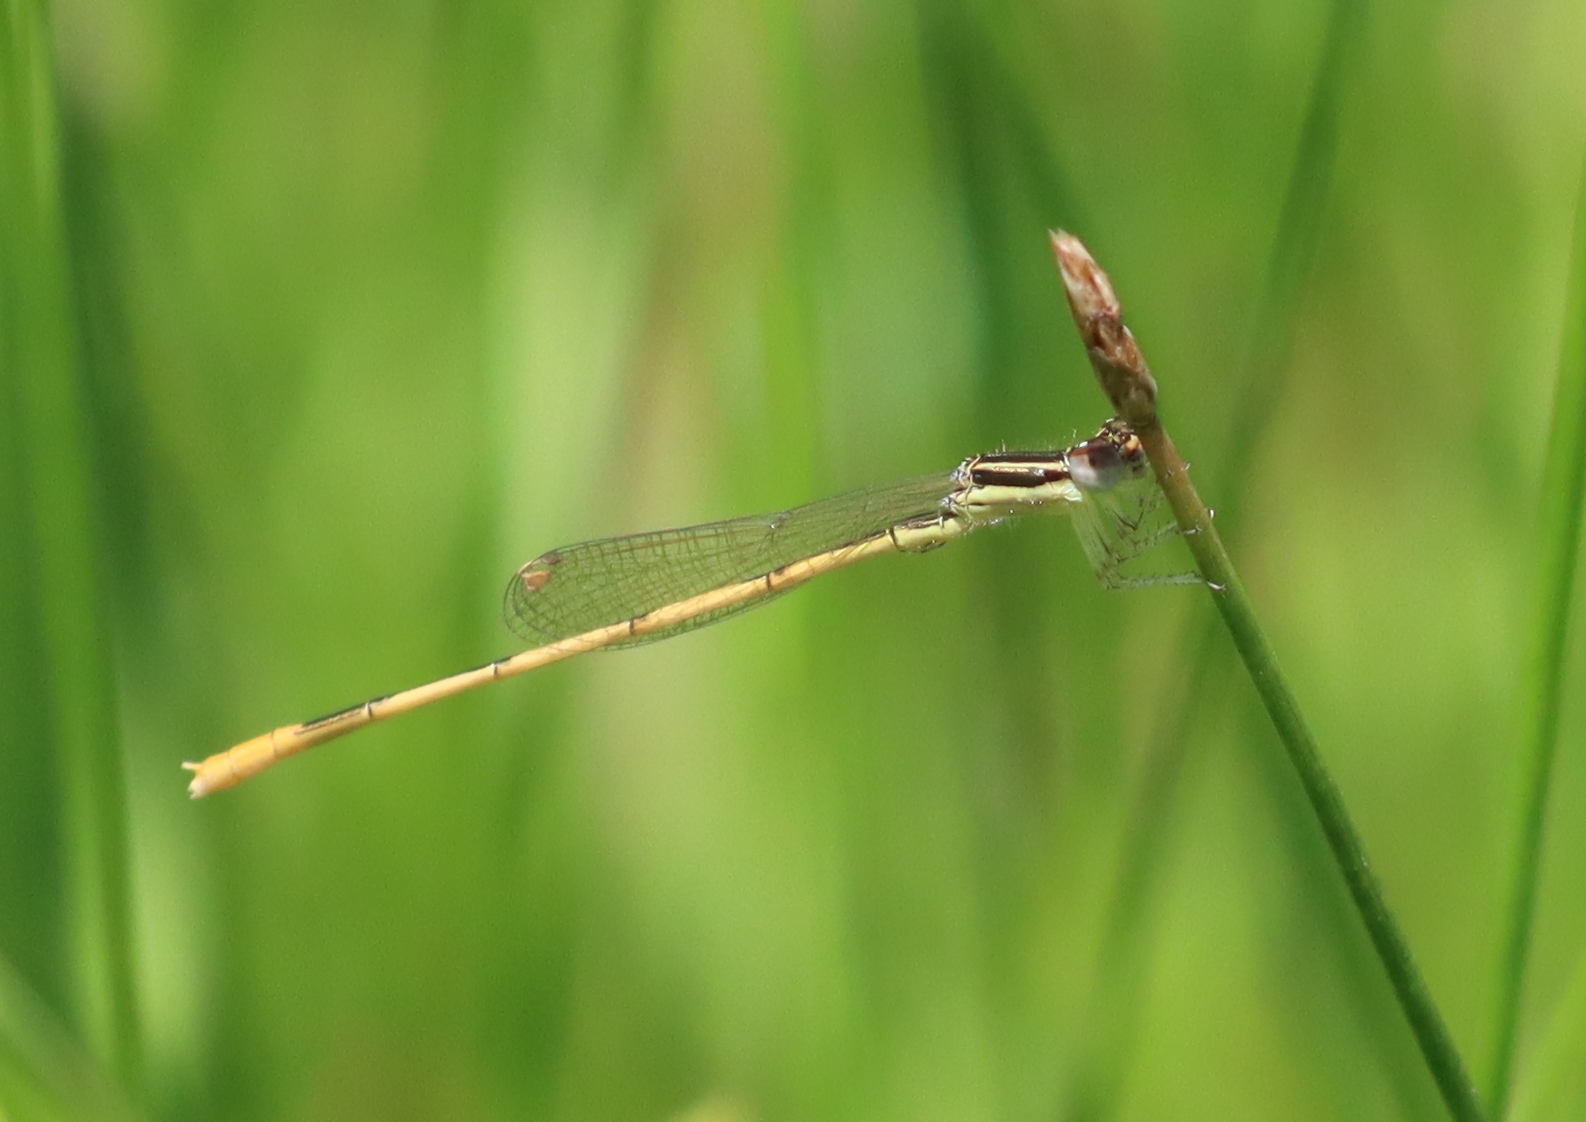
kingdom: Animalia
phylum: Arthropoda
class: Insecta
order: Odonata
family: Coenagrionidae
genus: Ischnura
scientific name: Ischnura hastata
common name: Citrine forktail
